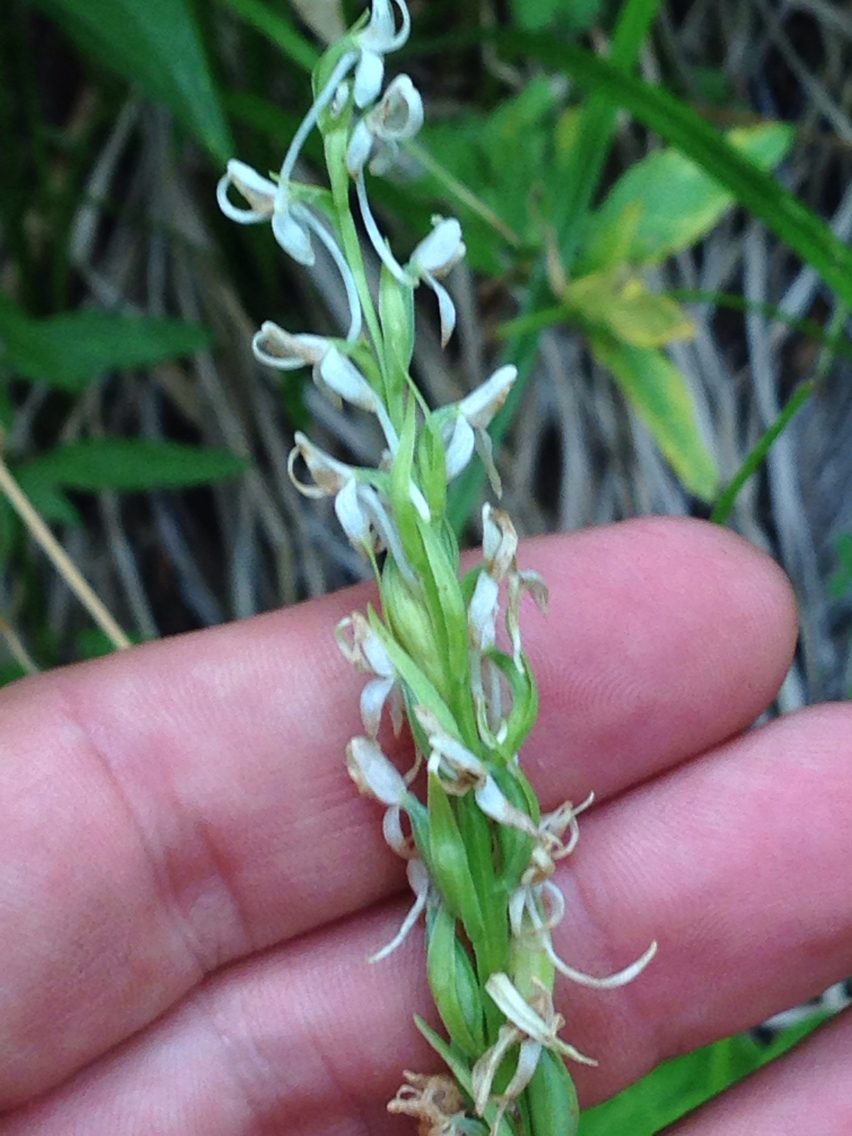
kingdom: Plantae
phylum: Tracheophyta
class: Liliopsida
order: Asparagales
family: Orchidaceae
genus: Platanthera
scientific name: Platanthera dilatata
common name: Bog candles
